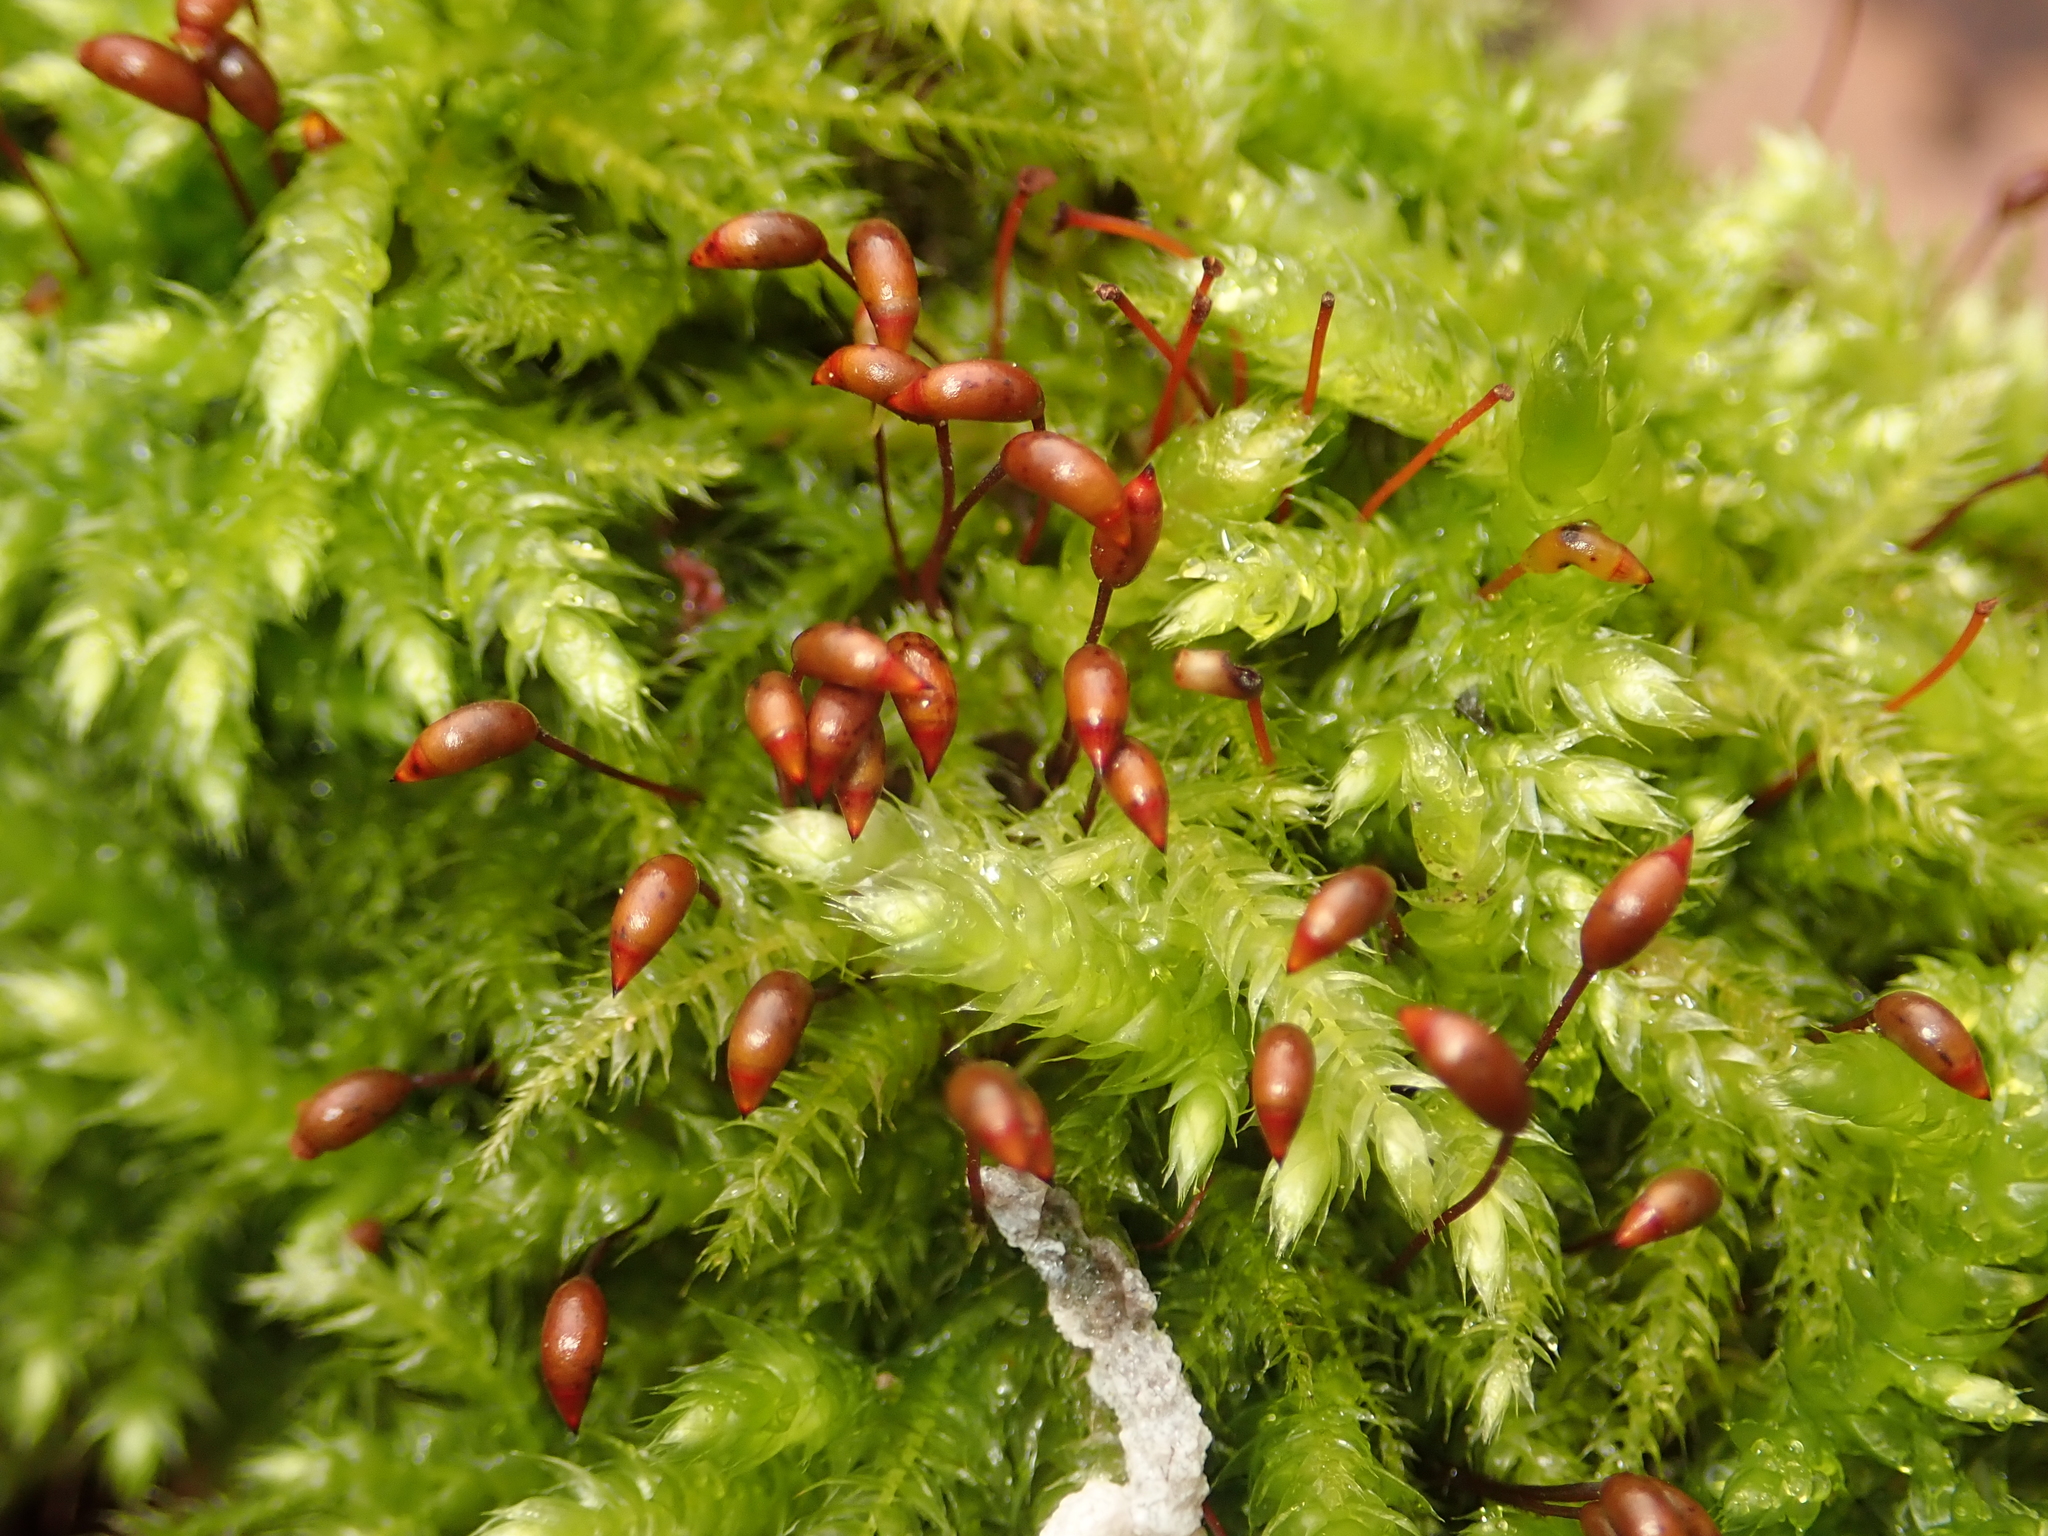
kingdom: Plantae
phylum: Bryophyta
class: Bryopsida
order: Hypnales
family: Brachytheciaceae
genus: Brachythecium
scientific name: Brachythecium rutabulum
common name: Rough-stalked feather-moss
